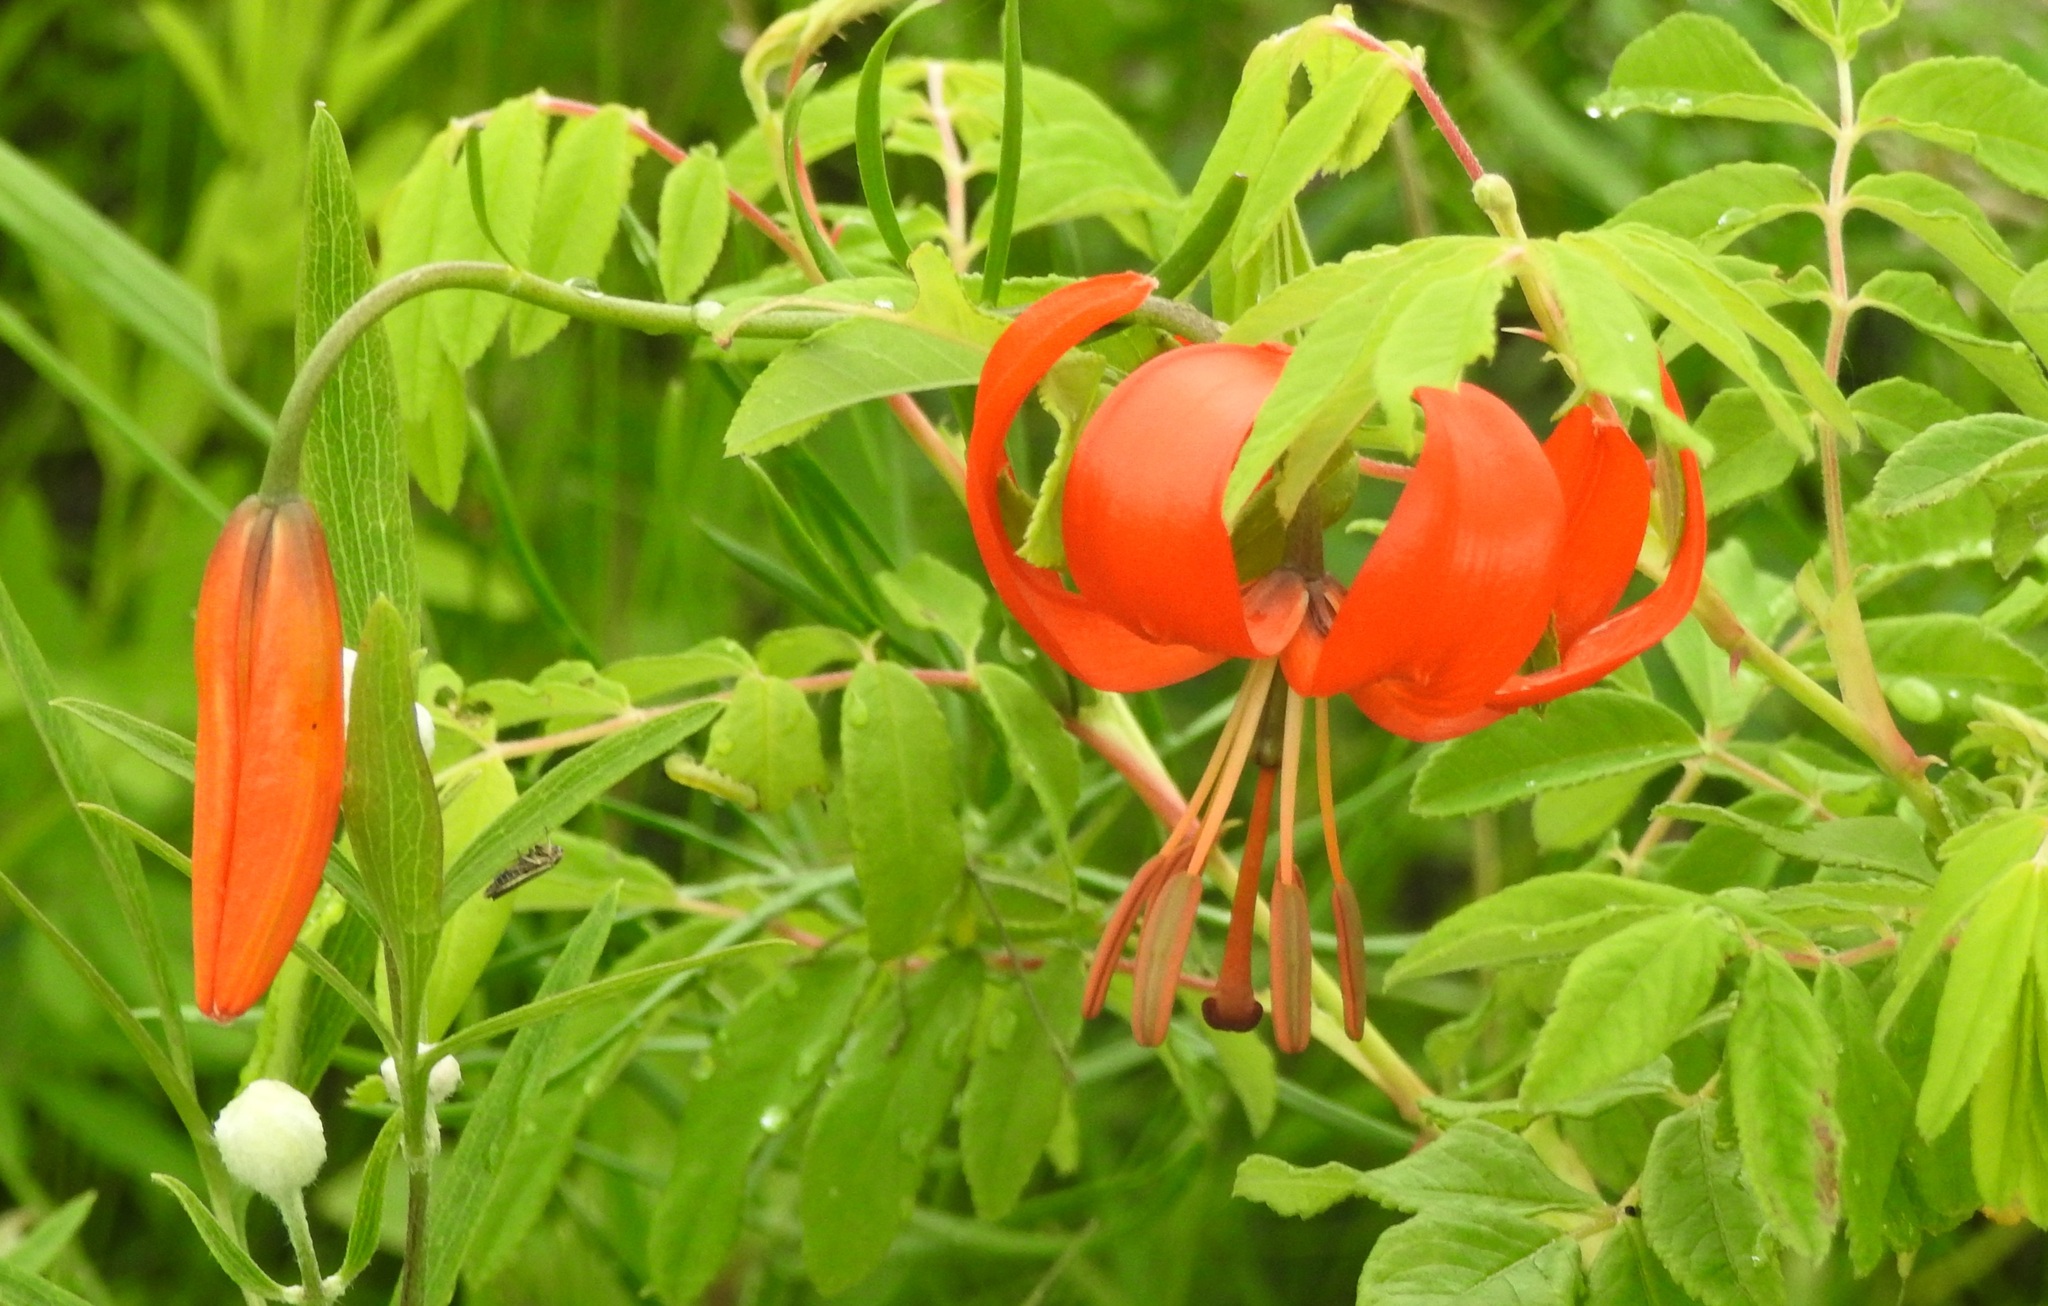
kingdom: Plantae
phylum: Tracheophyta
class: Liliopsida
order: Liliales
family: Liliaceae
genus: Lilium
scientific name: Lilium pumilum
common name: Coral lily
